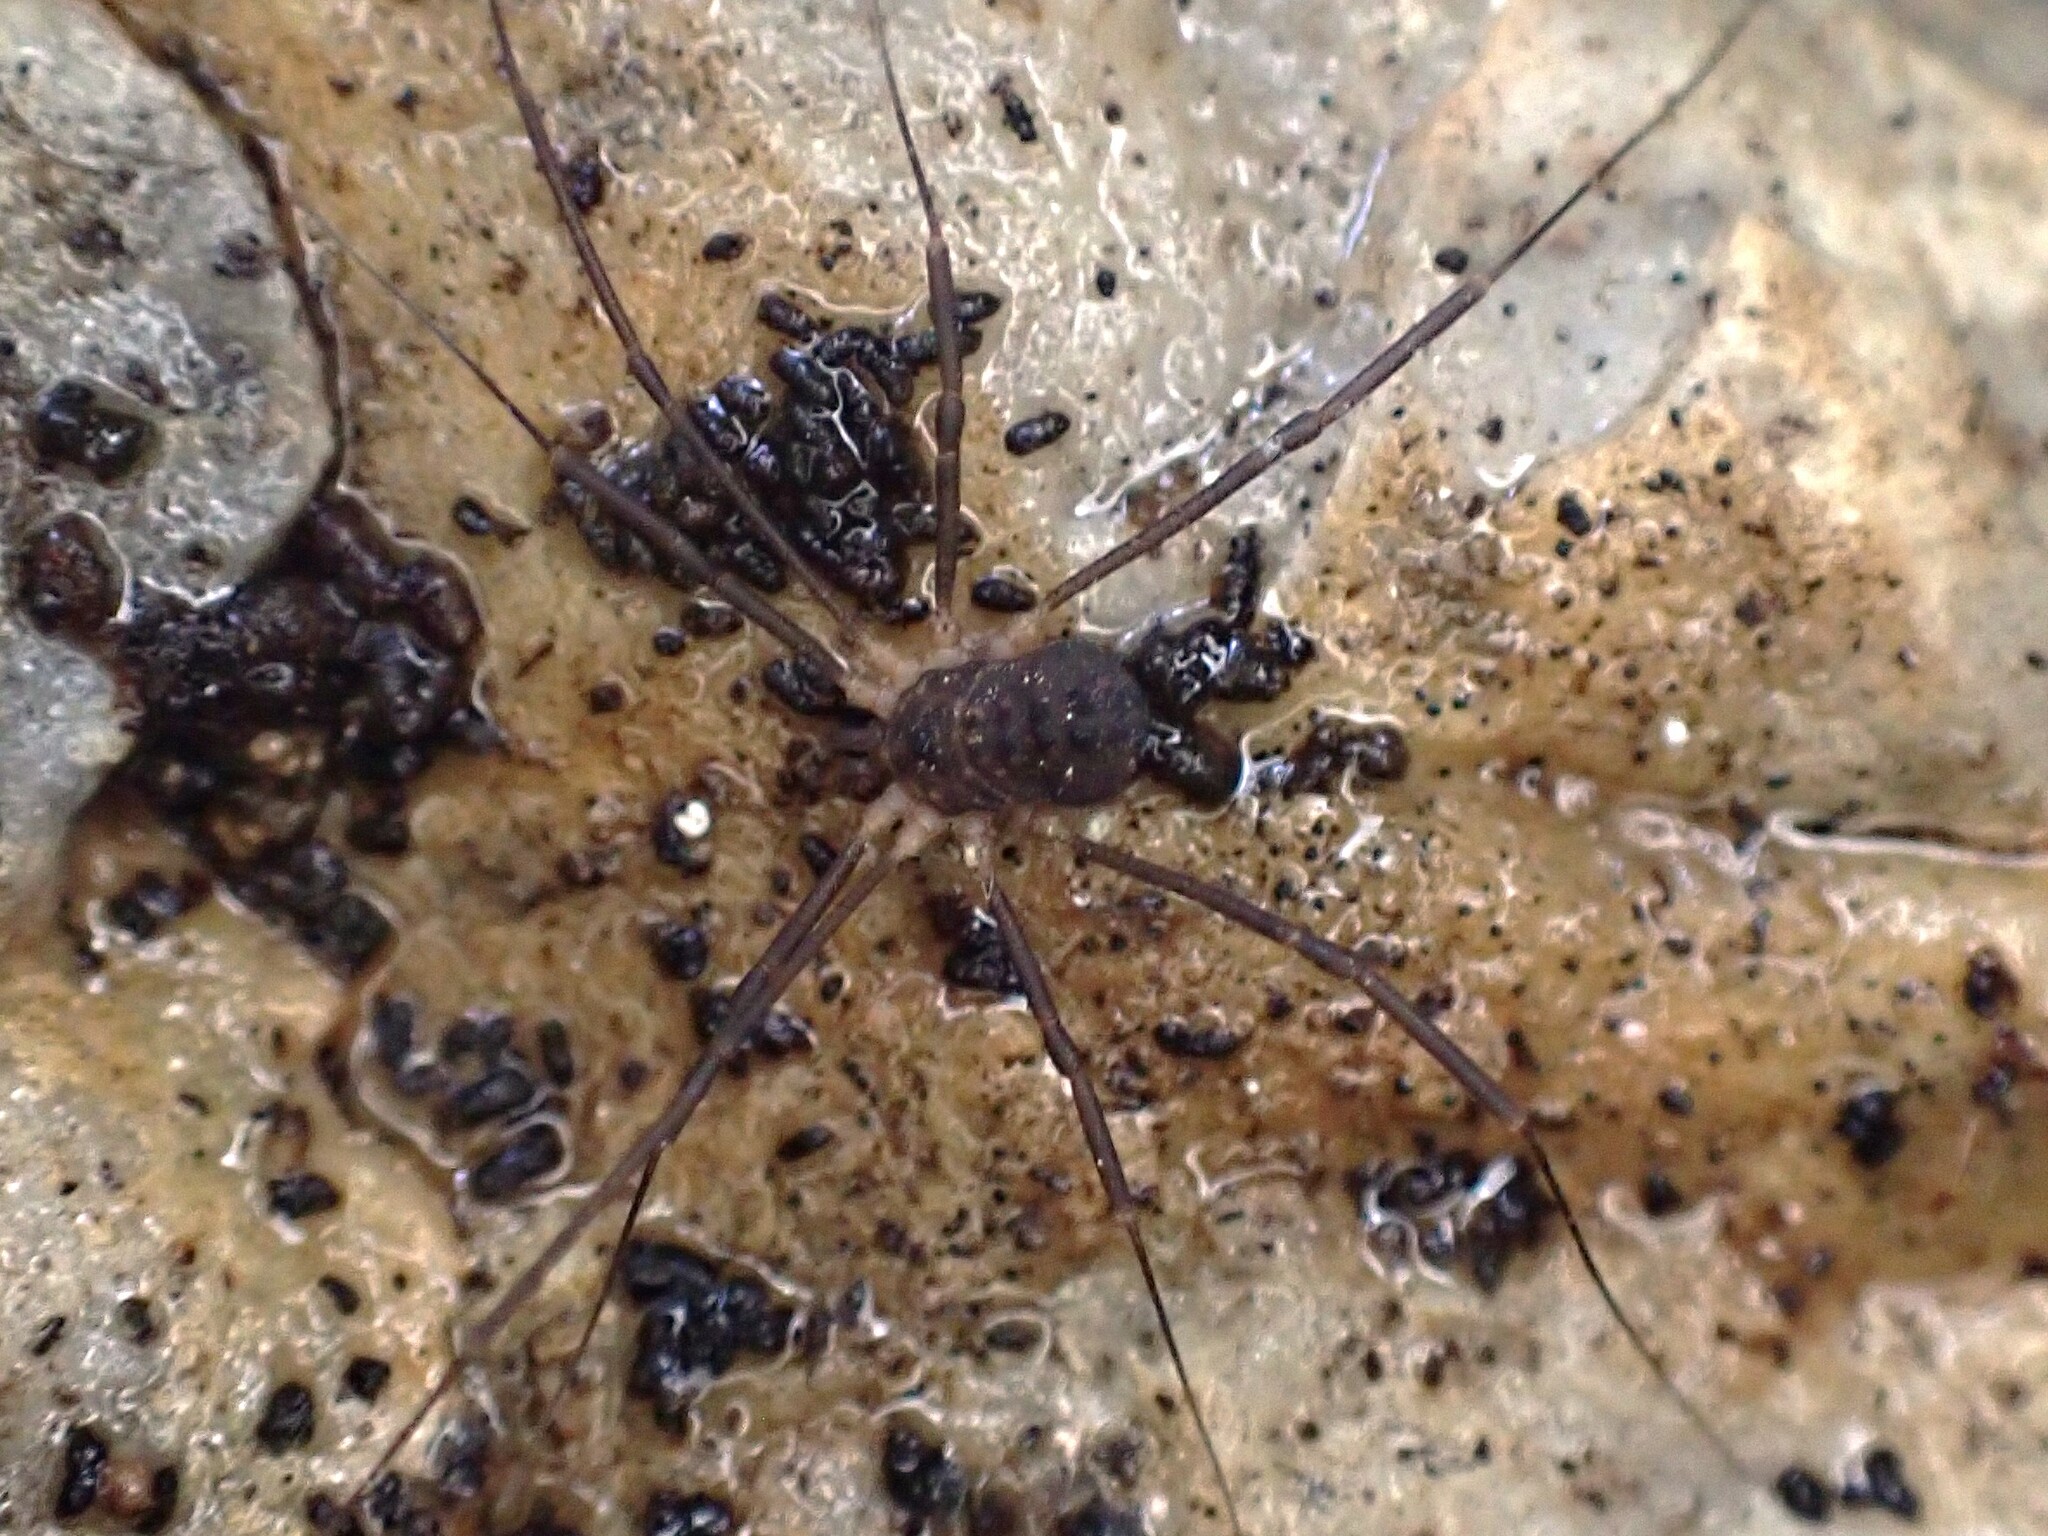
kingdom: Animalia
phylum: Arthropoda
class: Arachnida
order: Opiliones
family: Sclerosomatidae
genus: Astrobunus
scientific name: Astrobunus grallator
